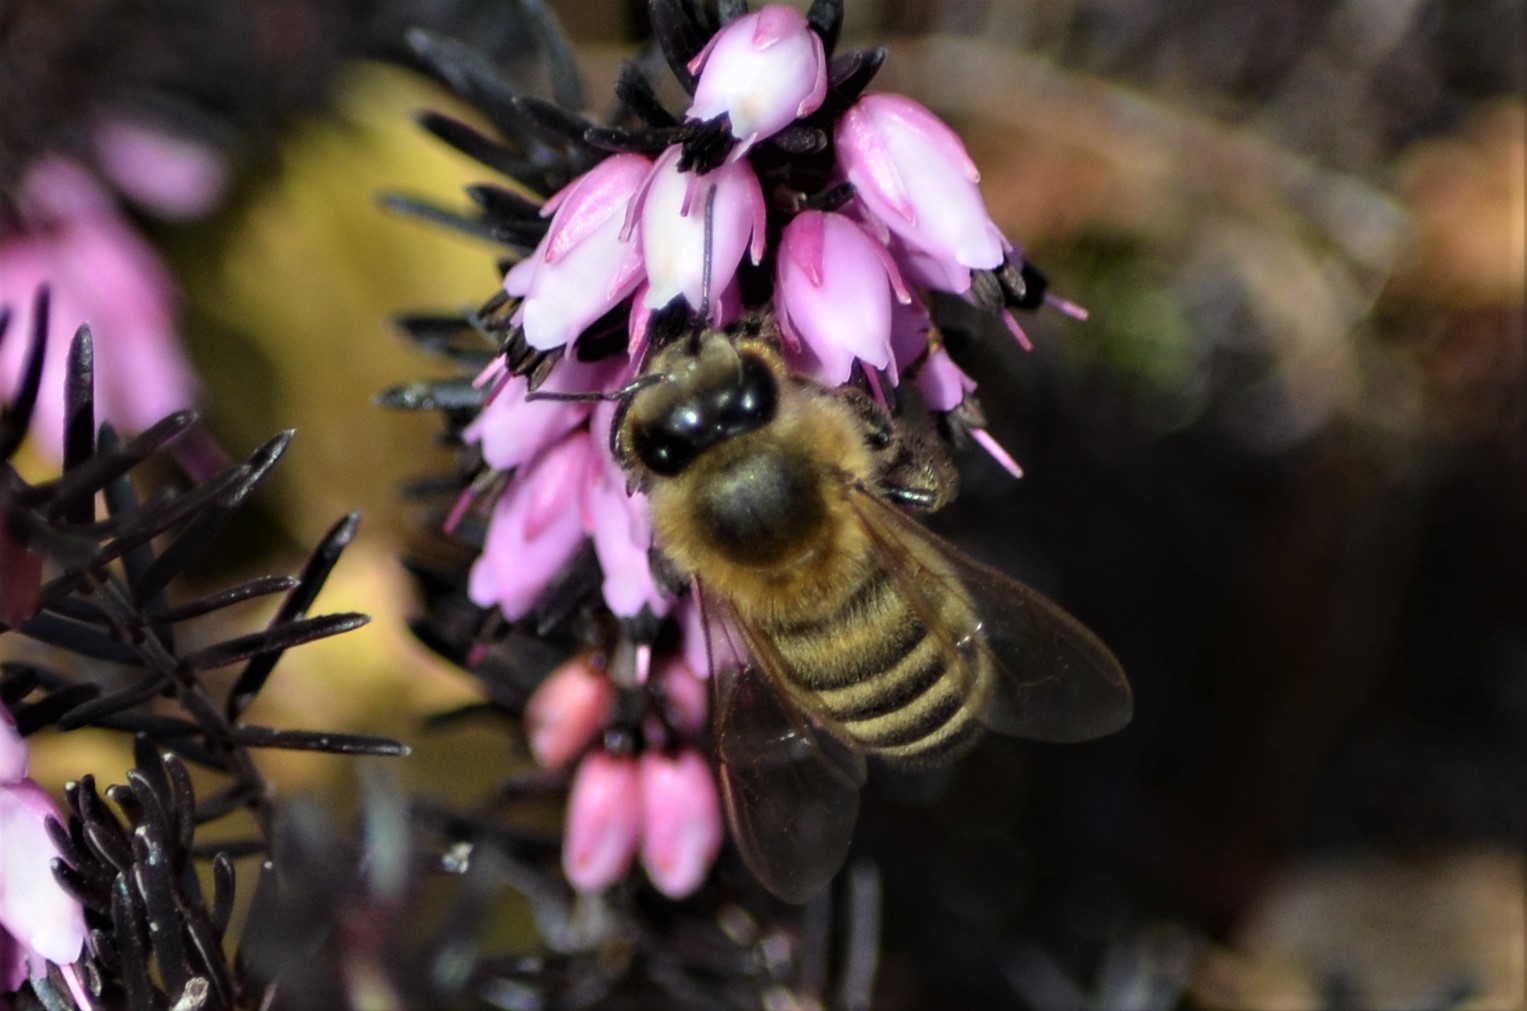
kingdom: Animalia
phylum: Arthropoda
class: Insecta
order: Hymenoptera
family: Apidae
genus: Apis
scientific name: Apis mellifera
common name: Honey bee
